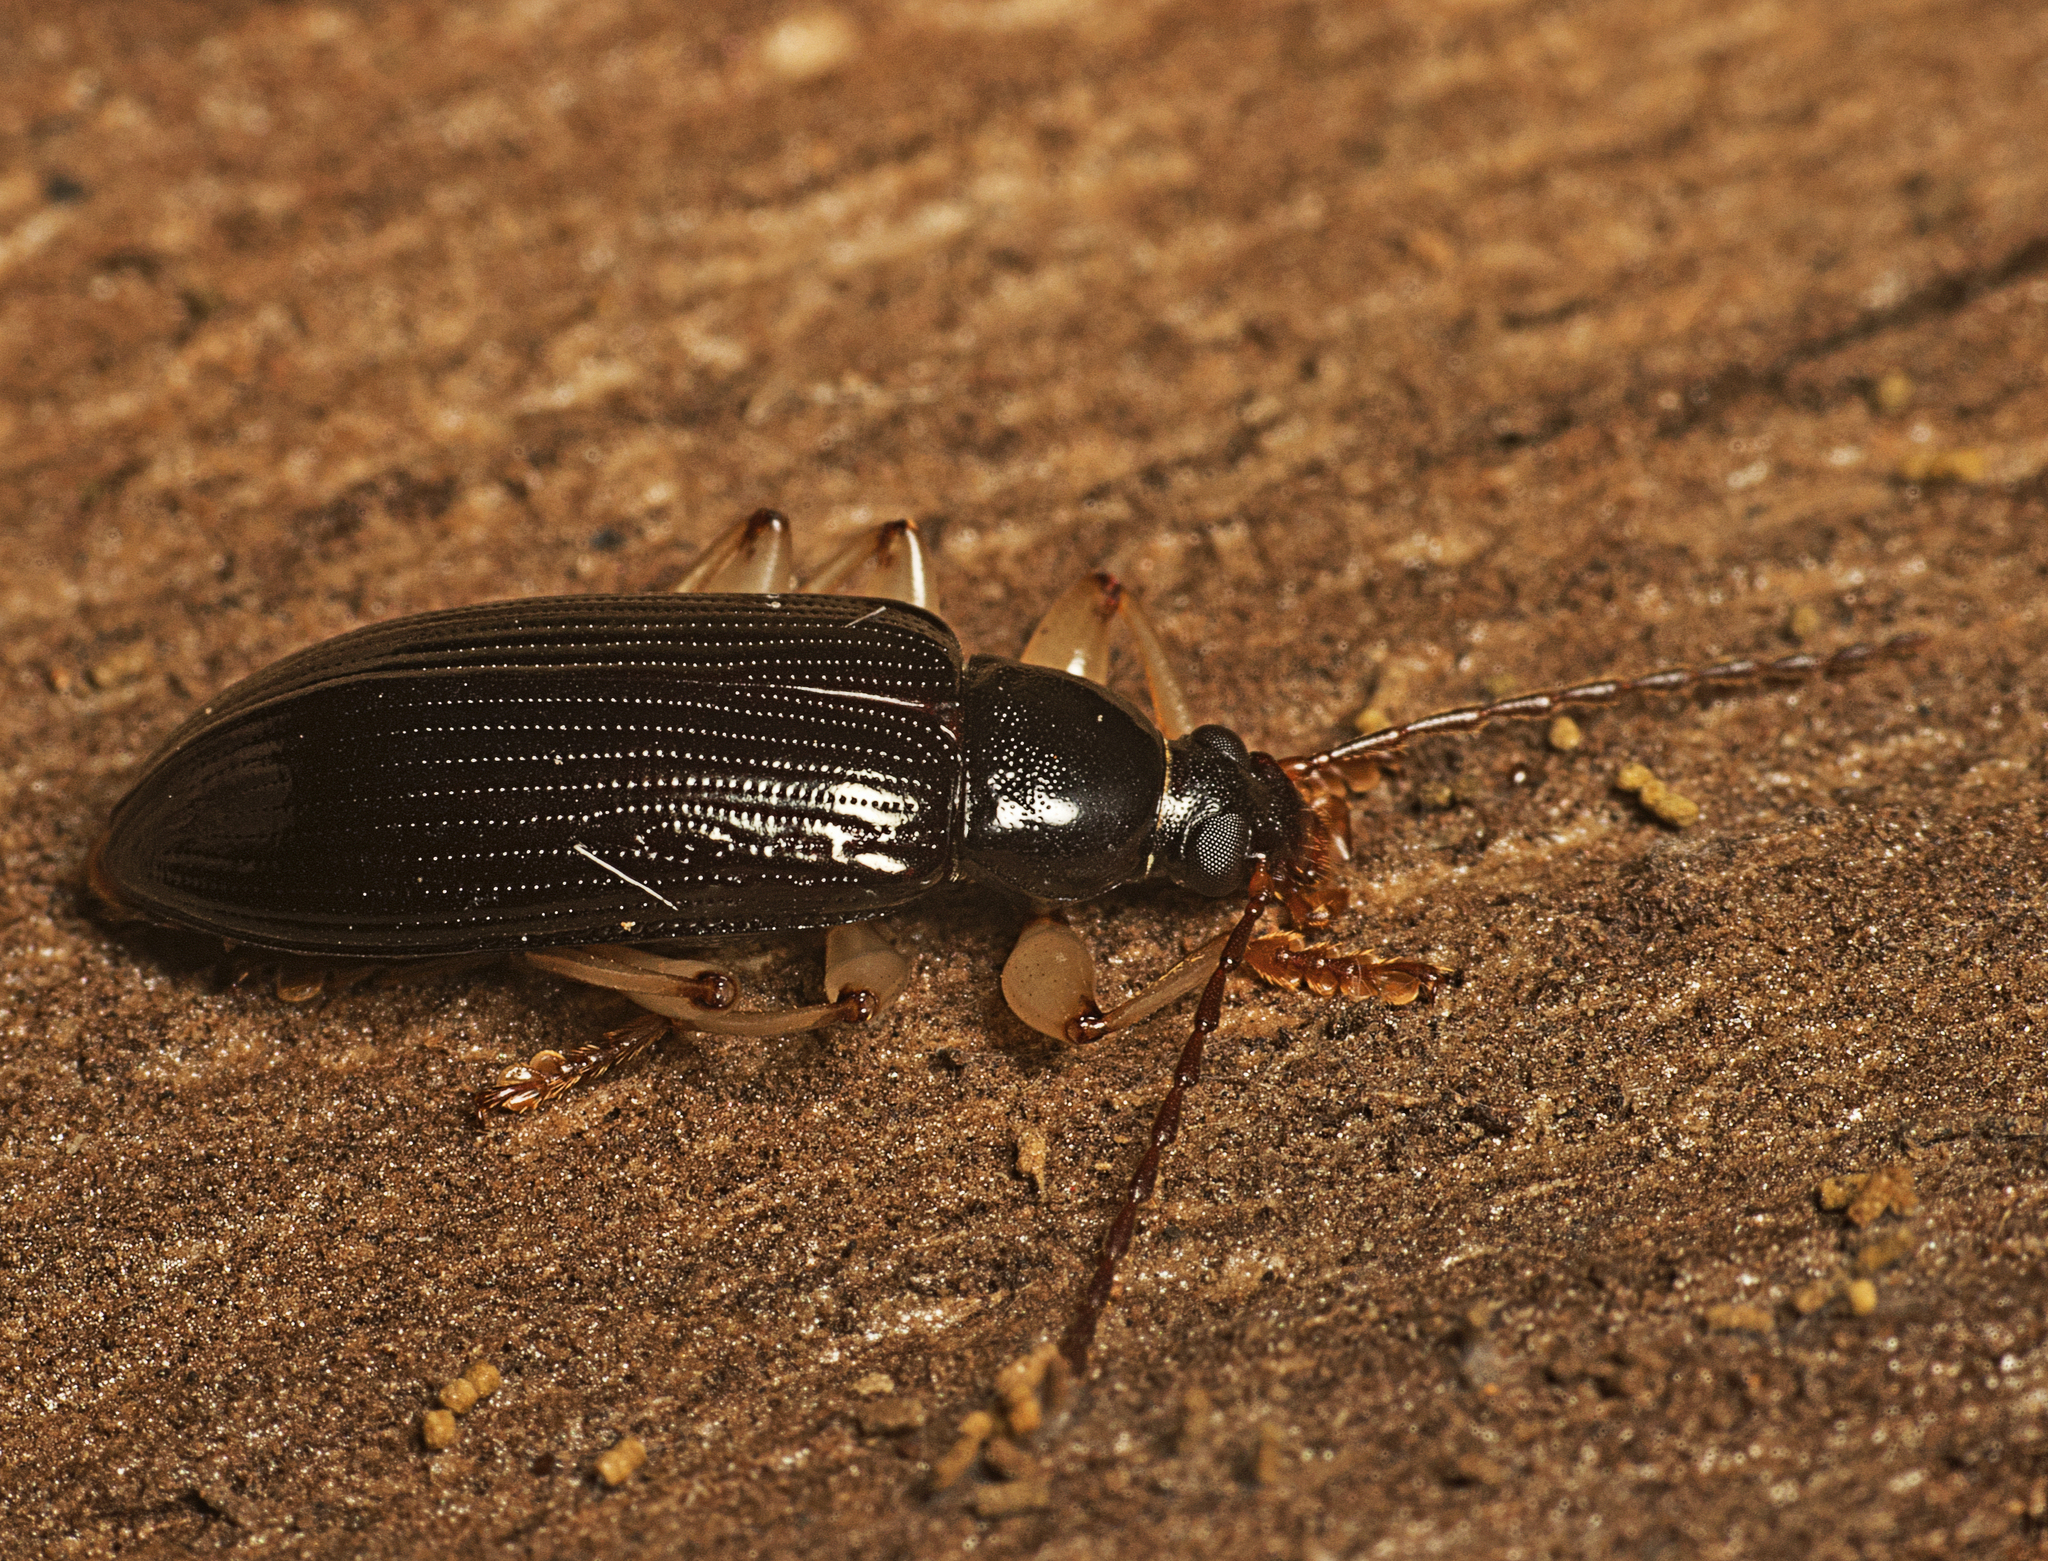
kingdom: Animalia
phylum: Arthropoda
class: Insecta
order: Coleoptera
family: Tenebrionidae
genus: Dimorphochilus
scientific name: Dimorphochilus
